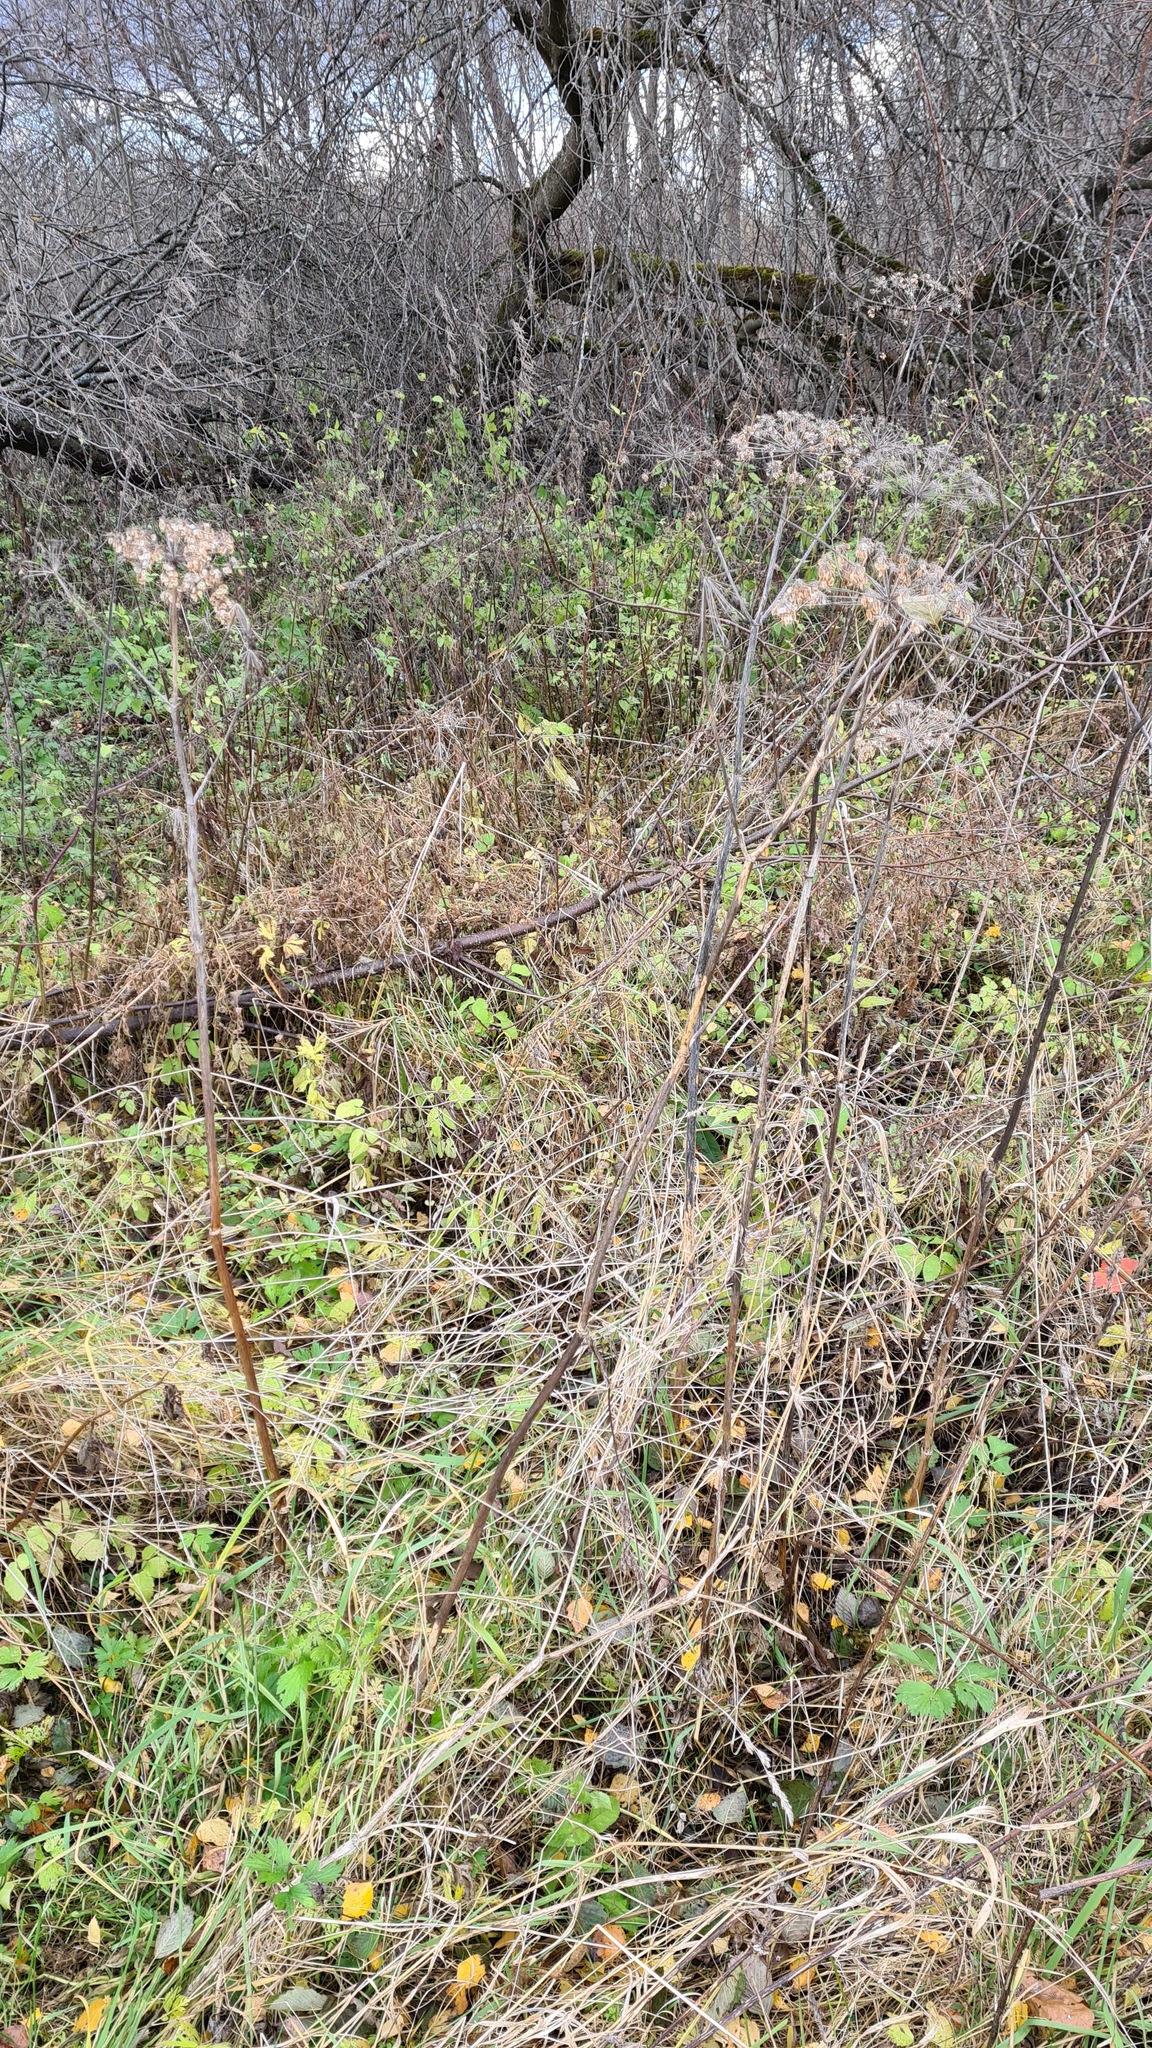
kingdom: Plantae
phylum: Tracheophyta
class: Magnoliopsida
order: Apiales
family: Apiaceae
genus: Angelica
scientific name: Angelica sylvestris
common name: Wild angelica
